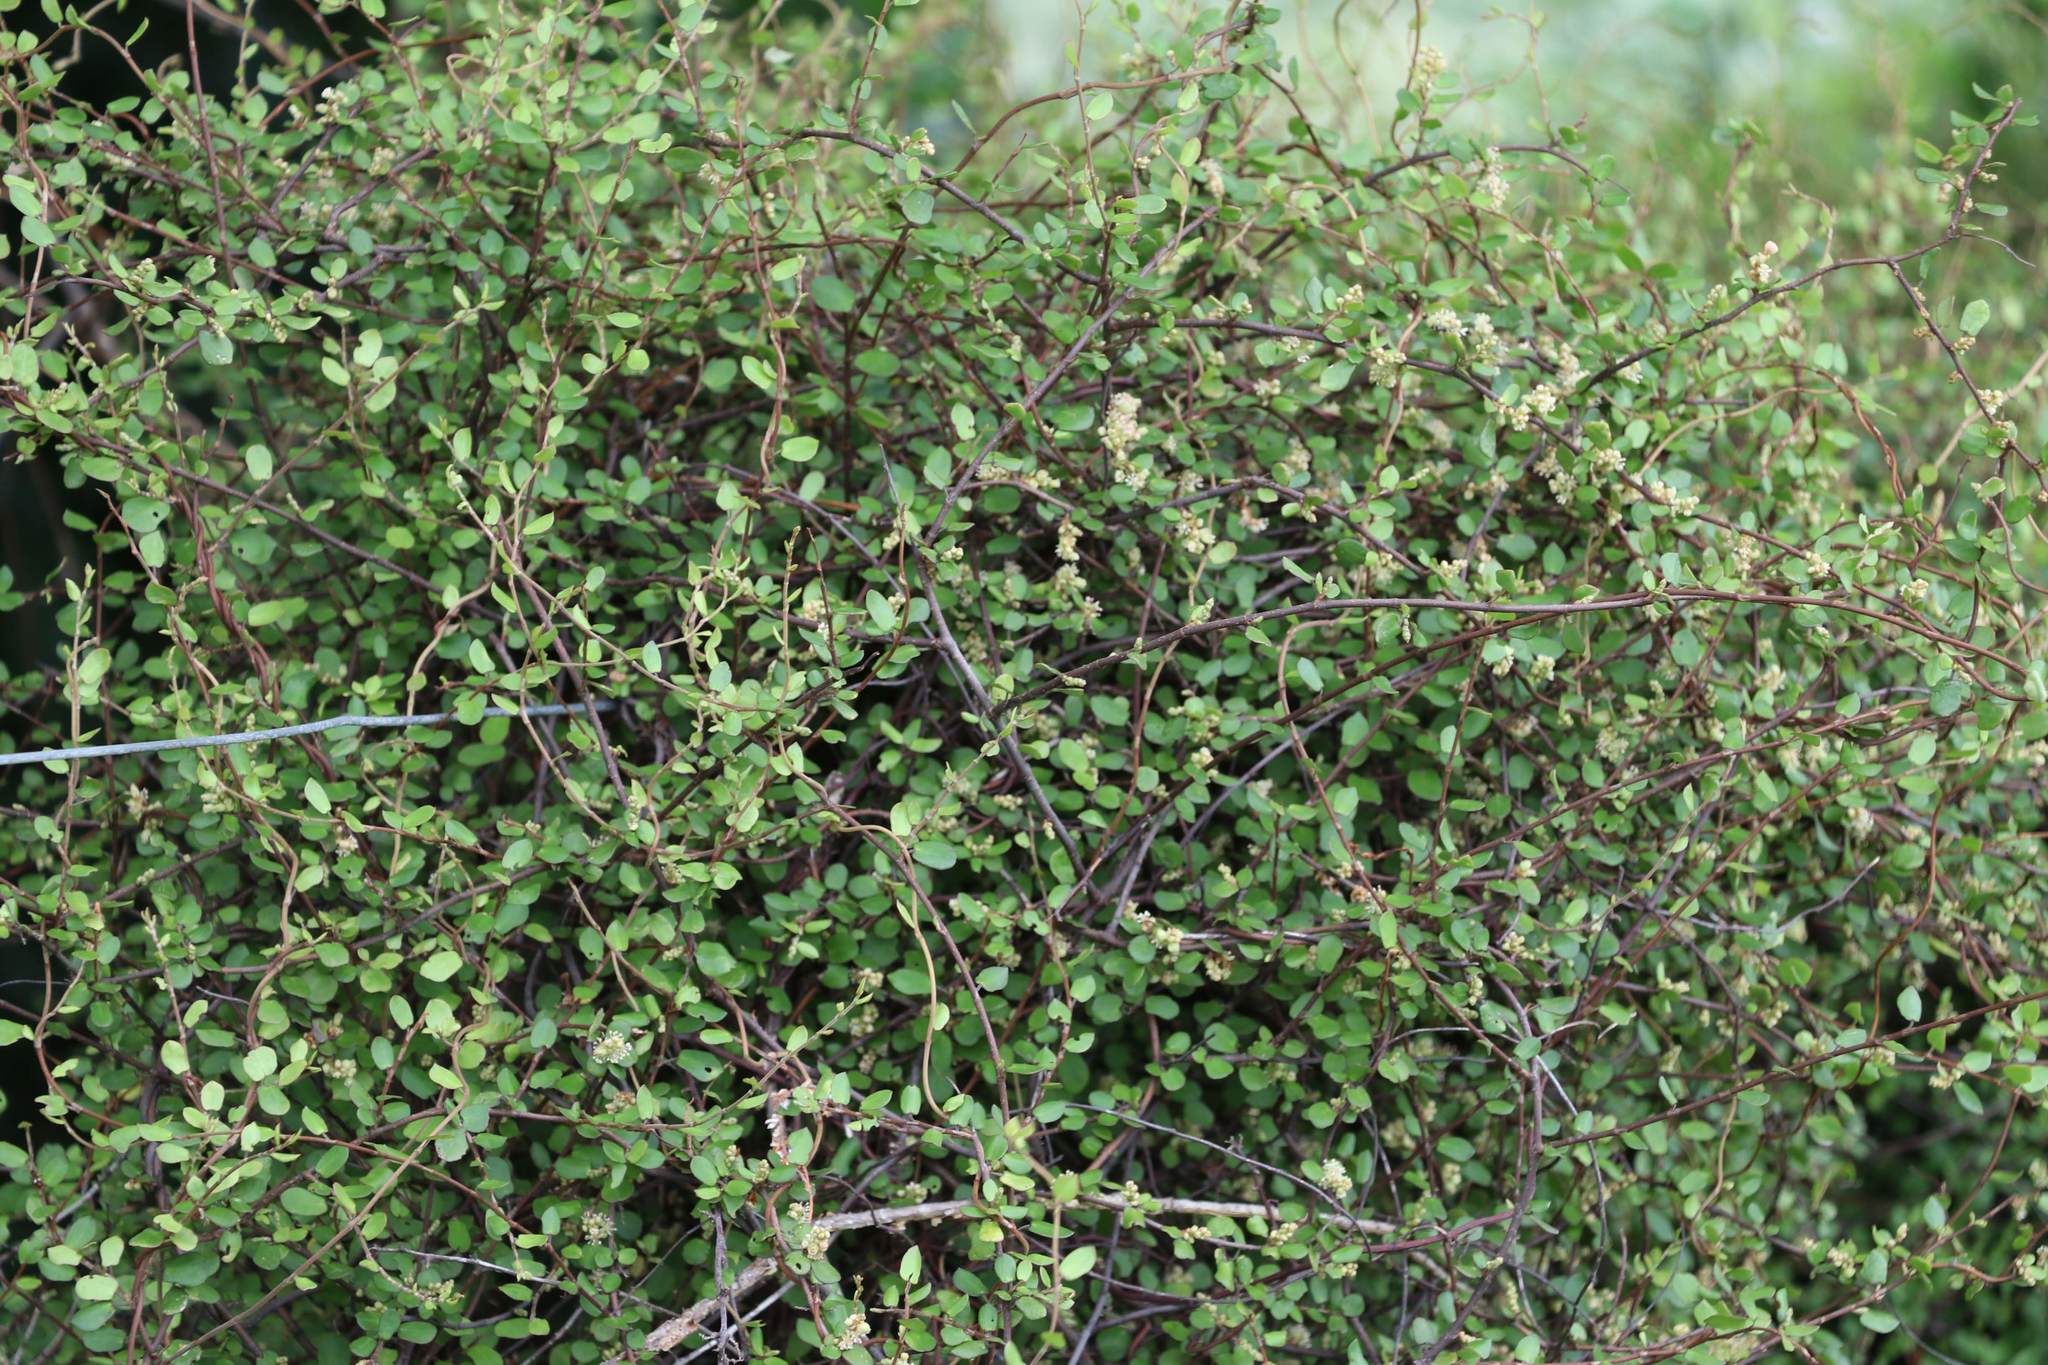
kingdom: Plantae
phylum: Tracheophyta
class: Magnoliopsida
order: Caryophyllales
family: Polygonaceae
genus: Muehlenbeckia
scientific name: Muehlenbeckia complexa
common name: Wireplant
